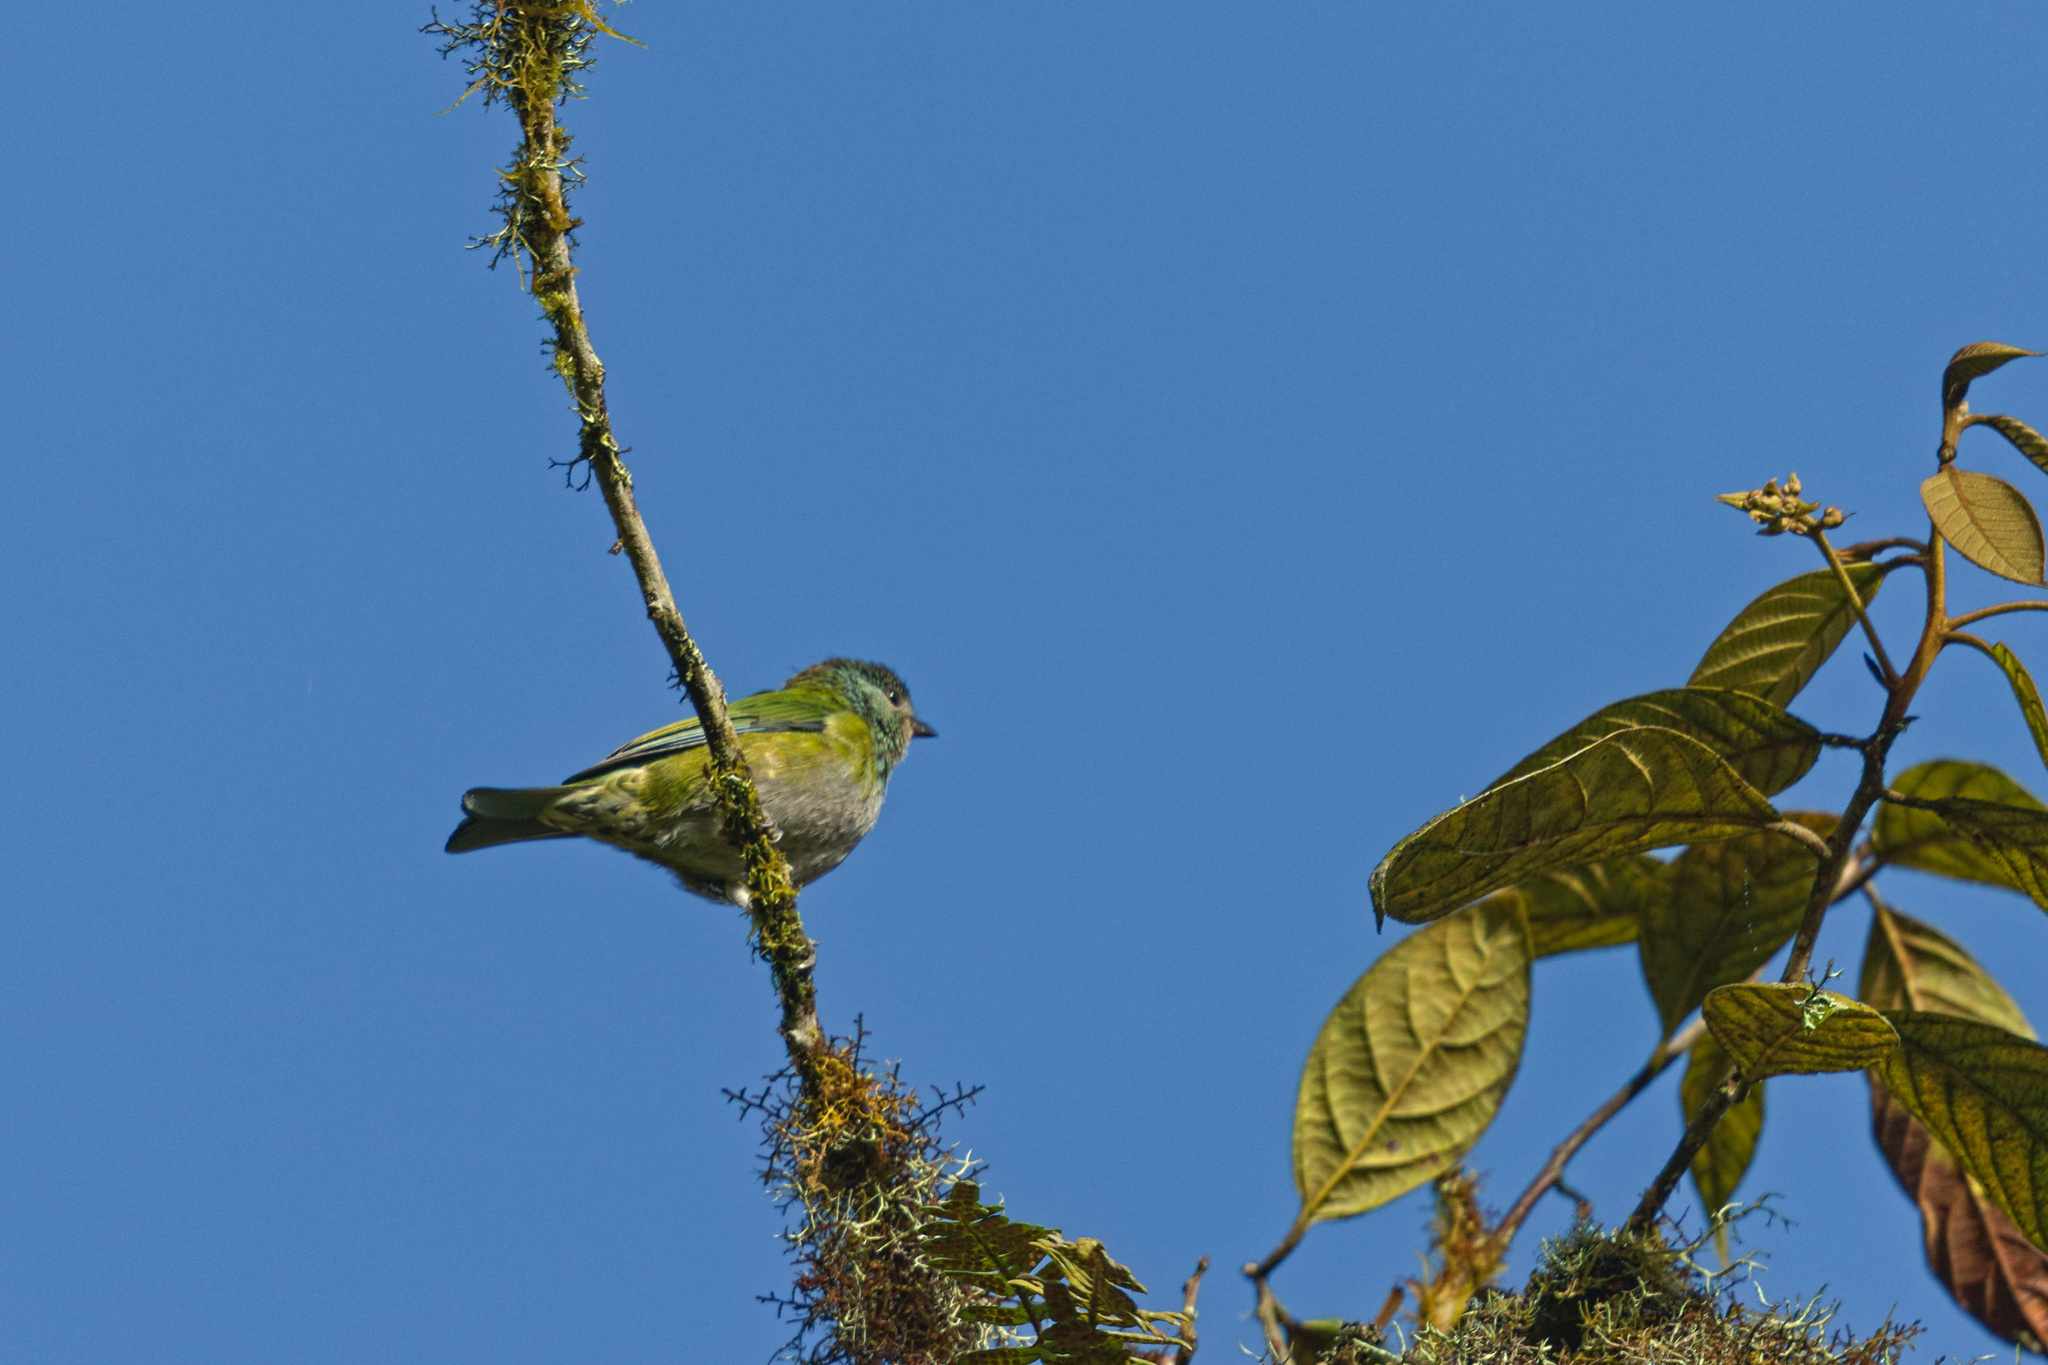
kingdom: Animalia
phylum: Chordata
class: Aves
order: Passeriformes
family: Thraupidae
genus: Stilpnia
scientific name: Stilpnia heinei
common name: Black-capped tanager
